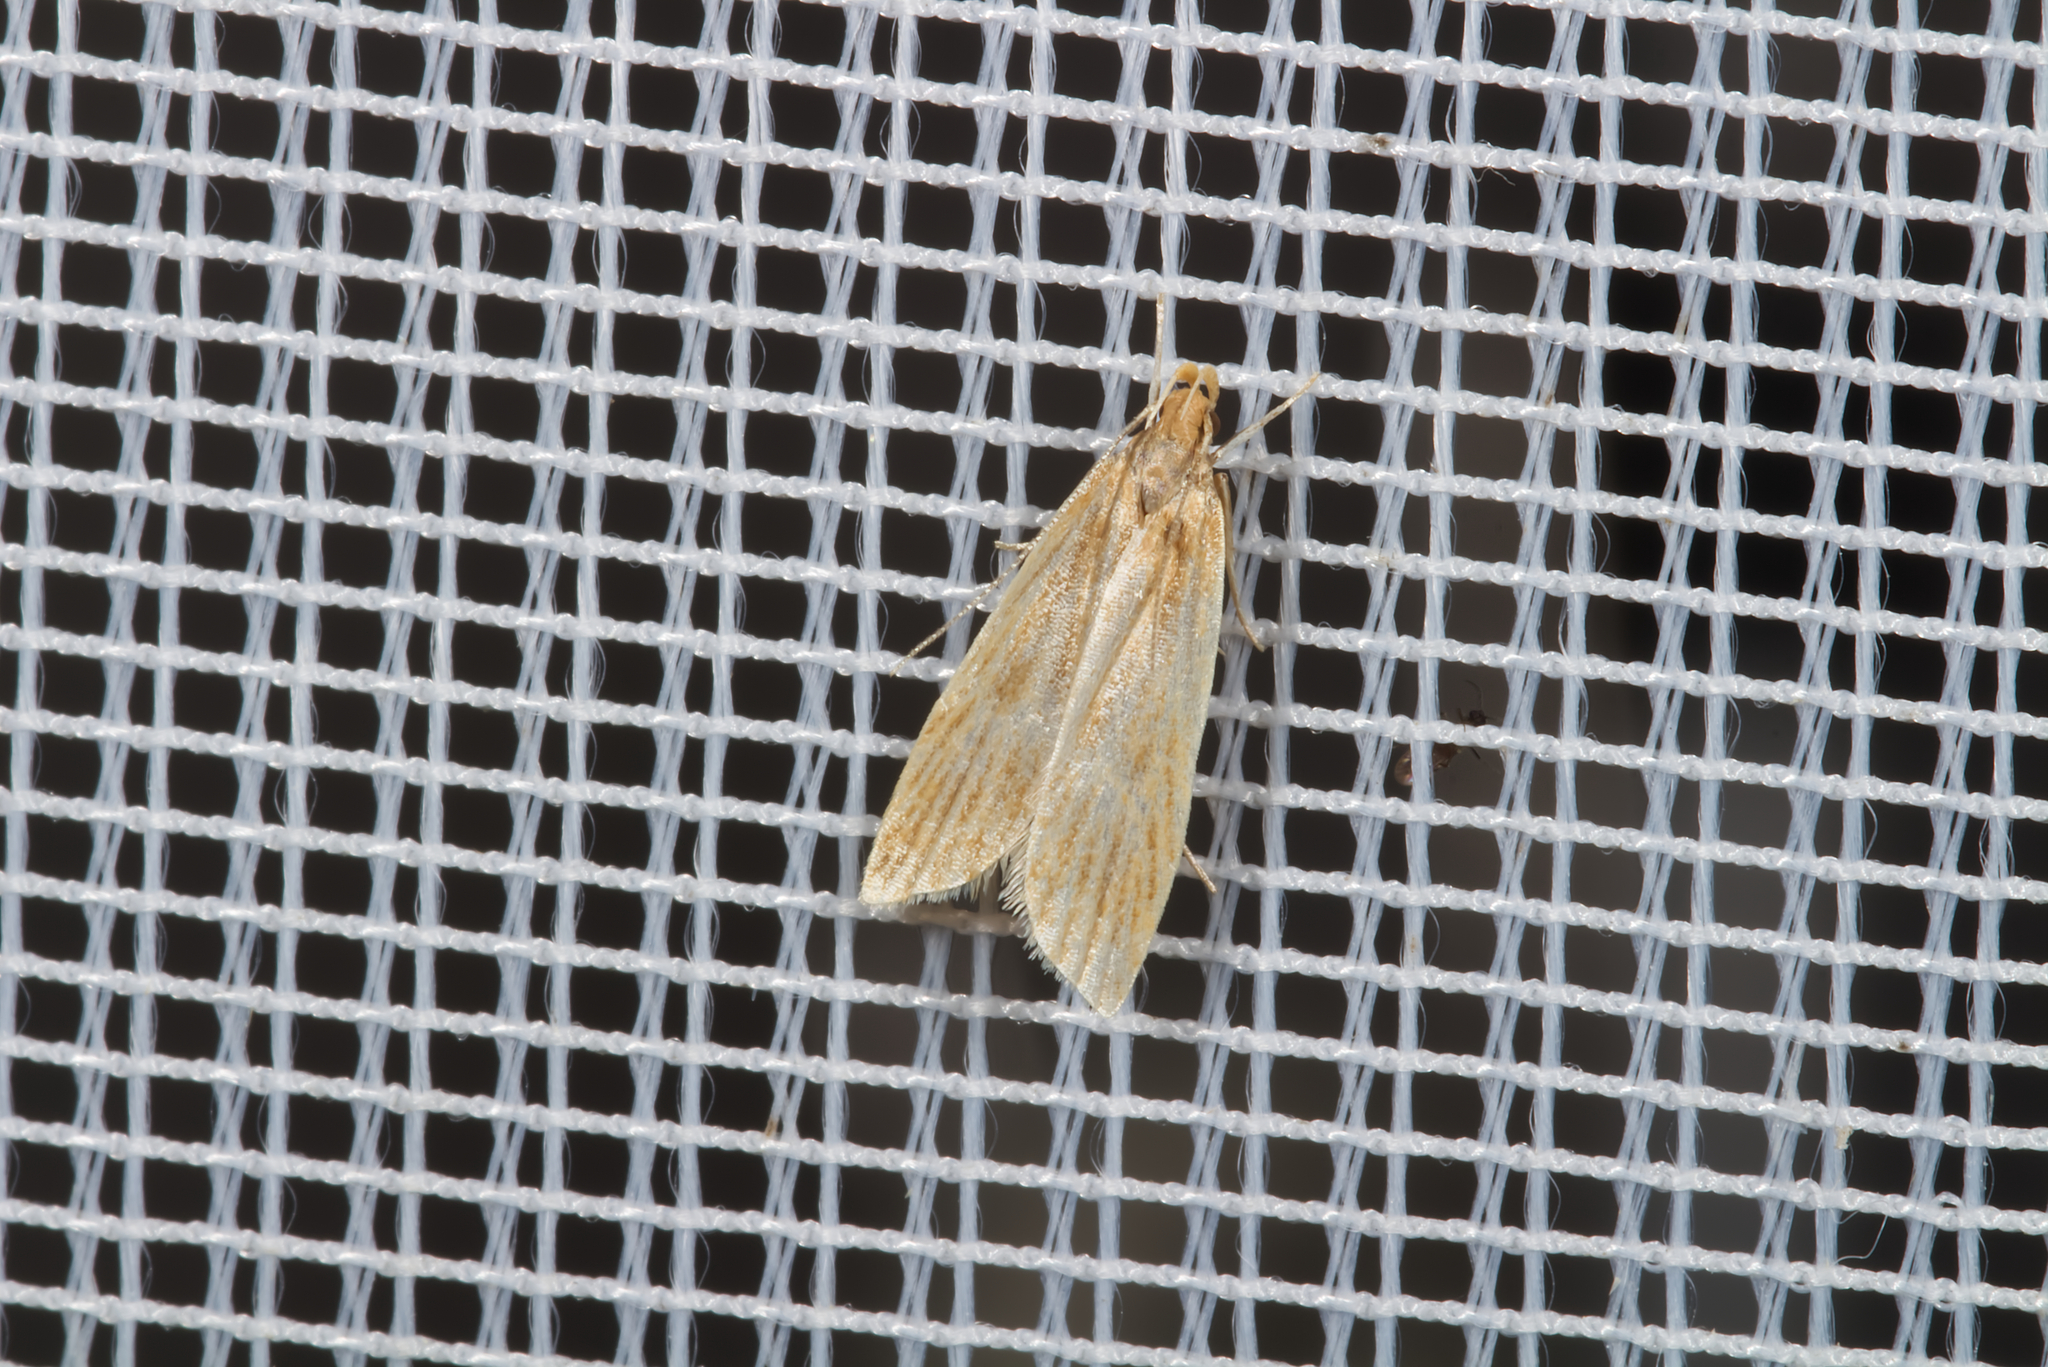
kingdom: Animalia
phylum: Arthropoda
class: Insecta
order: Lepidoptera
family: Gelechiidae
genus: Helcystogramma
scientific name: Helcystogramma rufescens
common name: Orange crest
